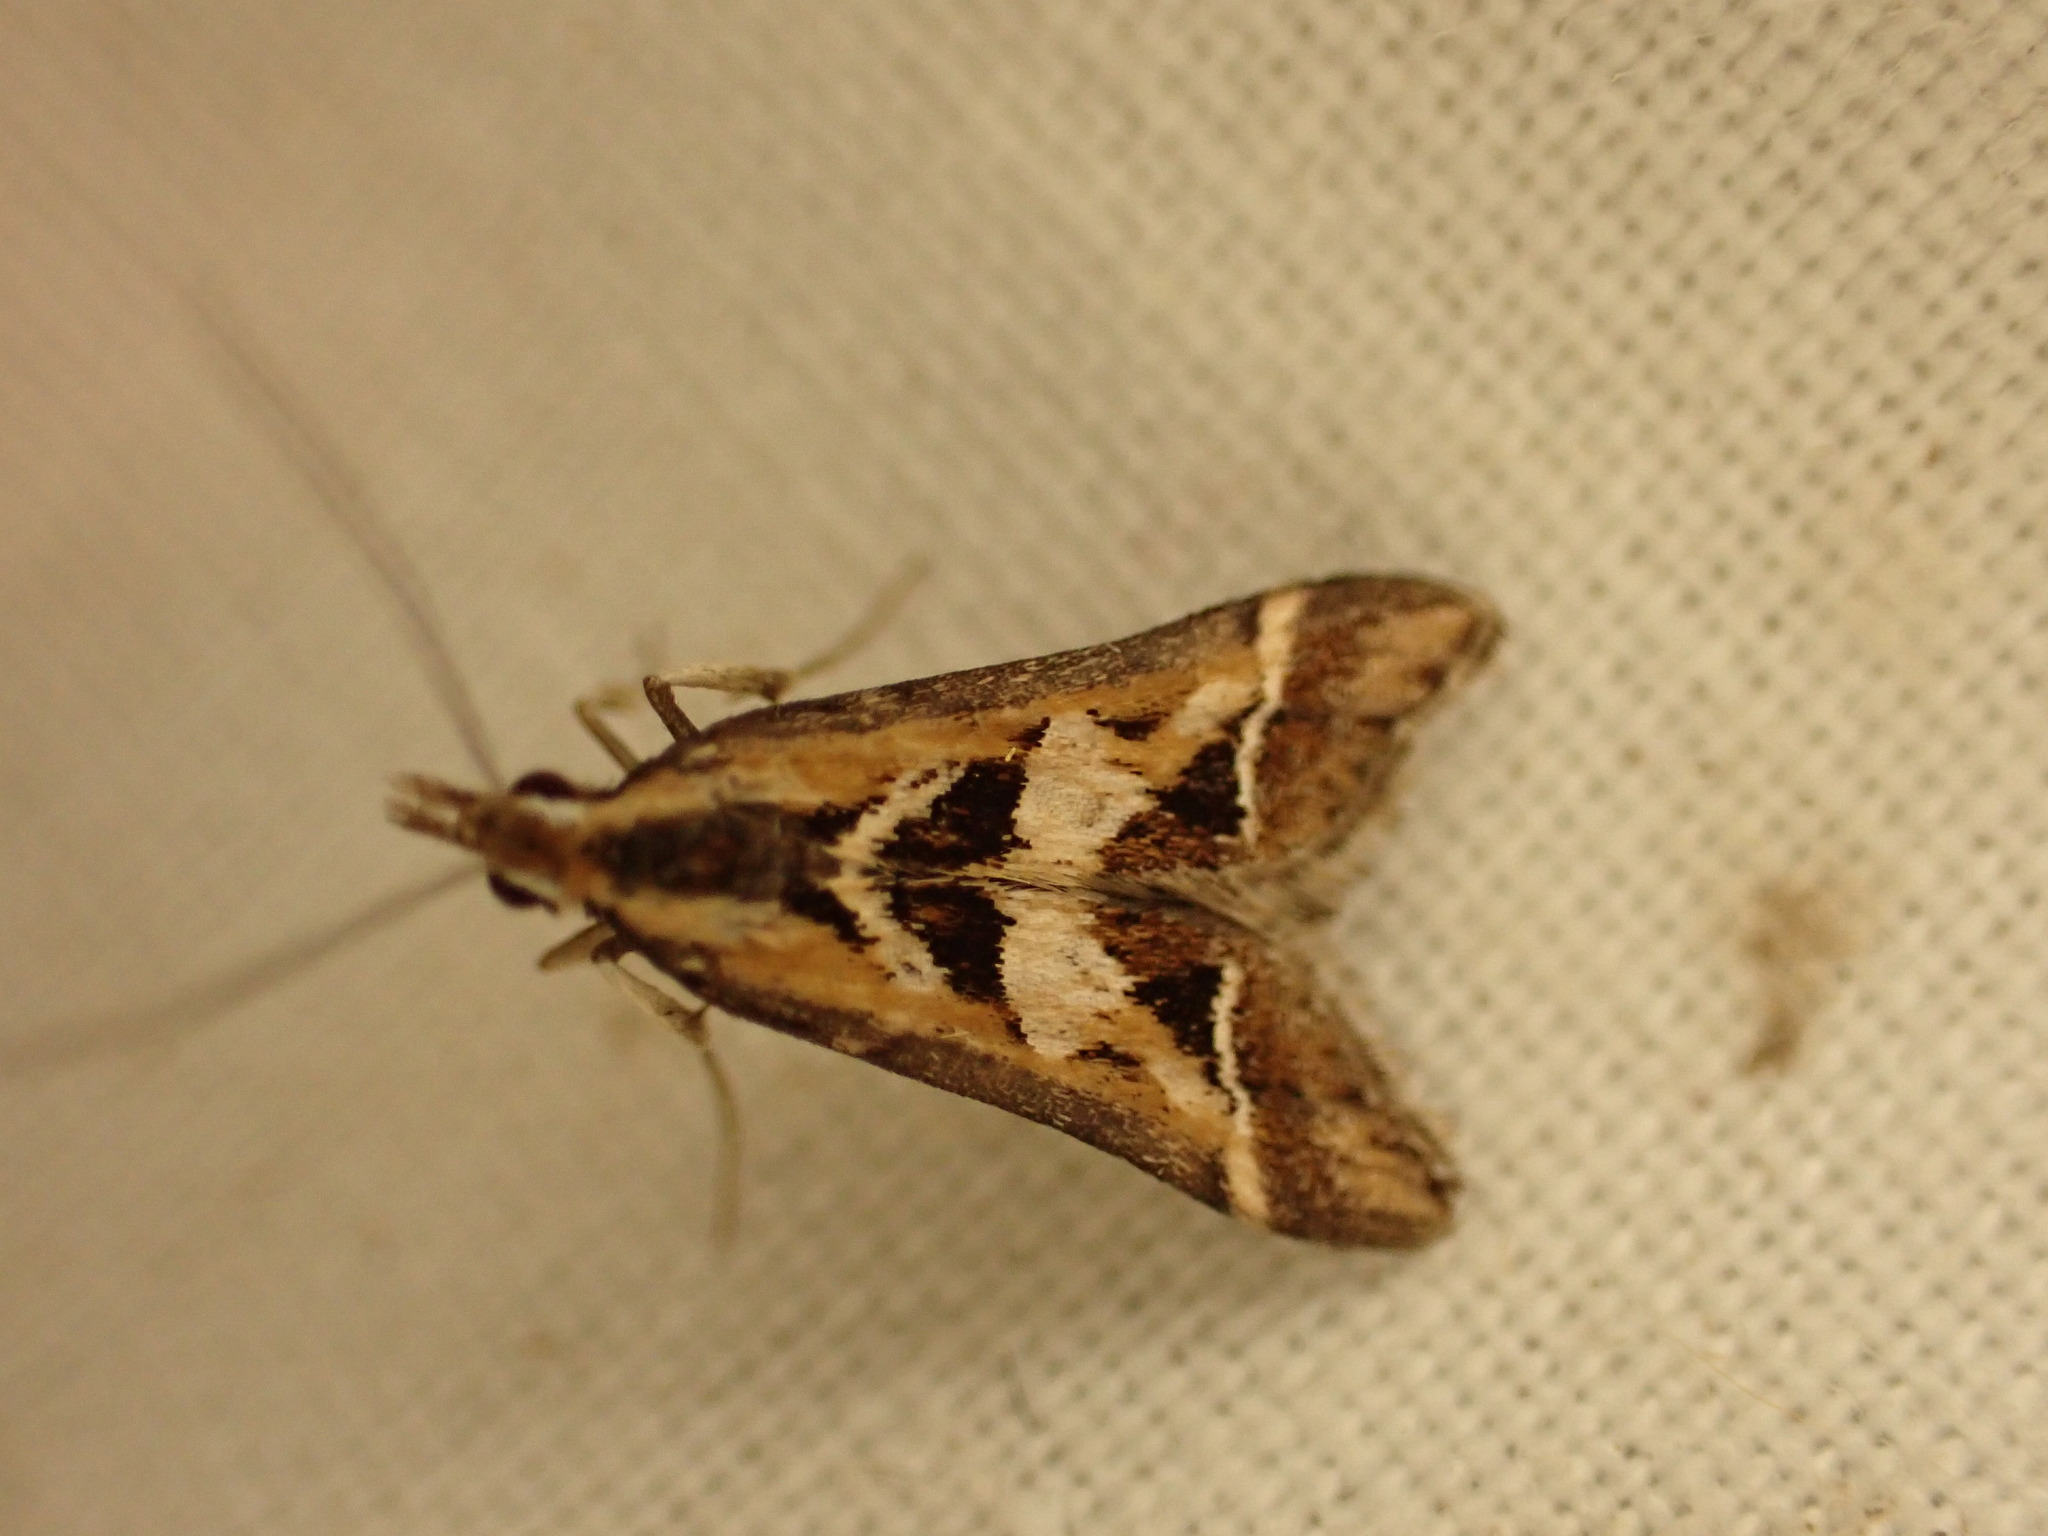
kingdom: Animalia
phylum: Arthropoda
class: Insecta
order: Lepidoptera
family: Crambidae
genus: Diasemia
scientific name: Diasemia grammalis
